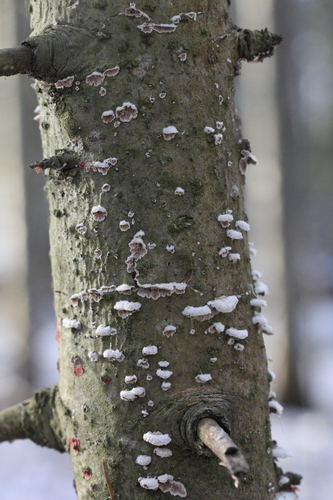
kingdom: Fungi
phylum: Basidiomycota
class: Agaricomycetes
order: Hymenochaetales
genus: Trichaptum
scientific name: Trichaptum fuscoviolaceum
